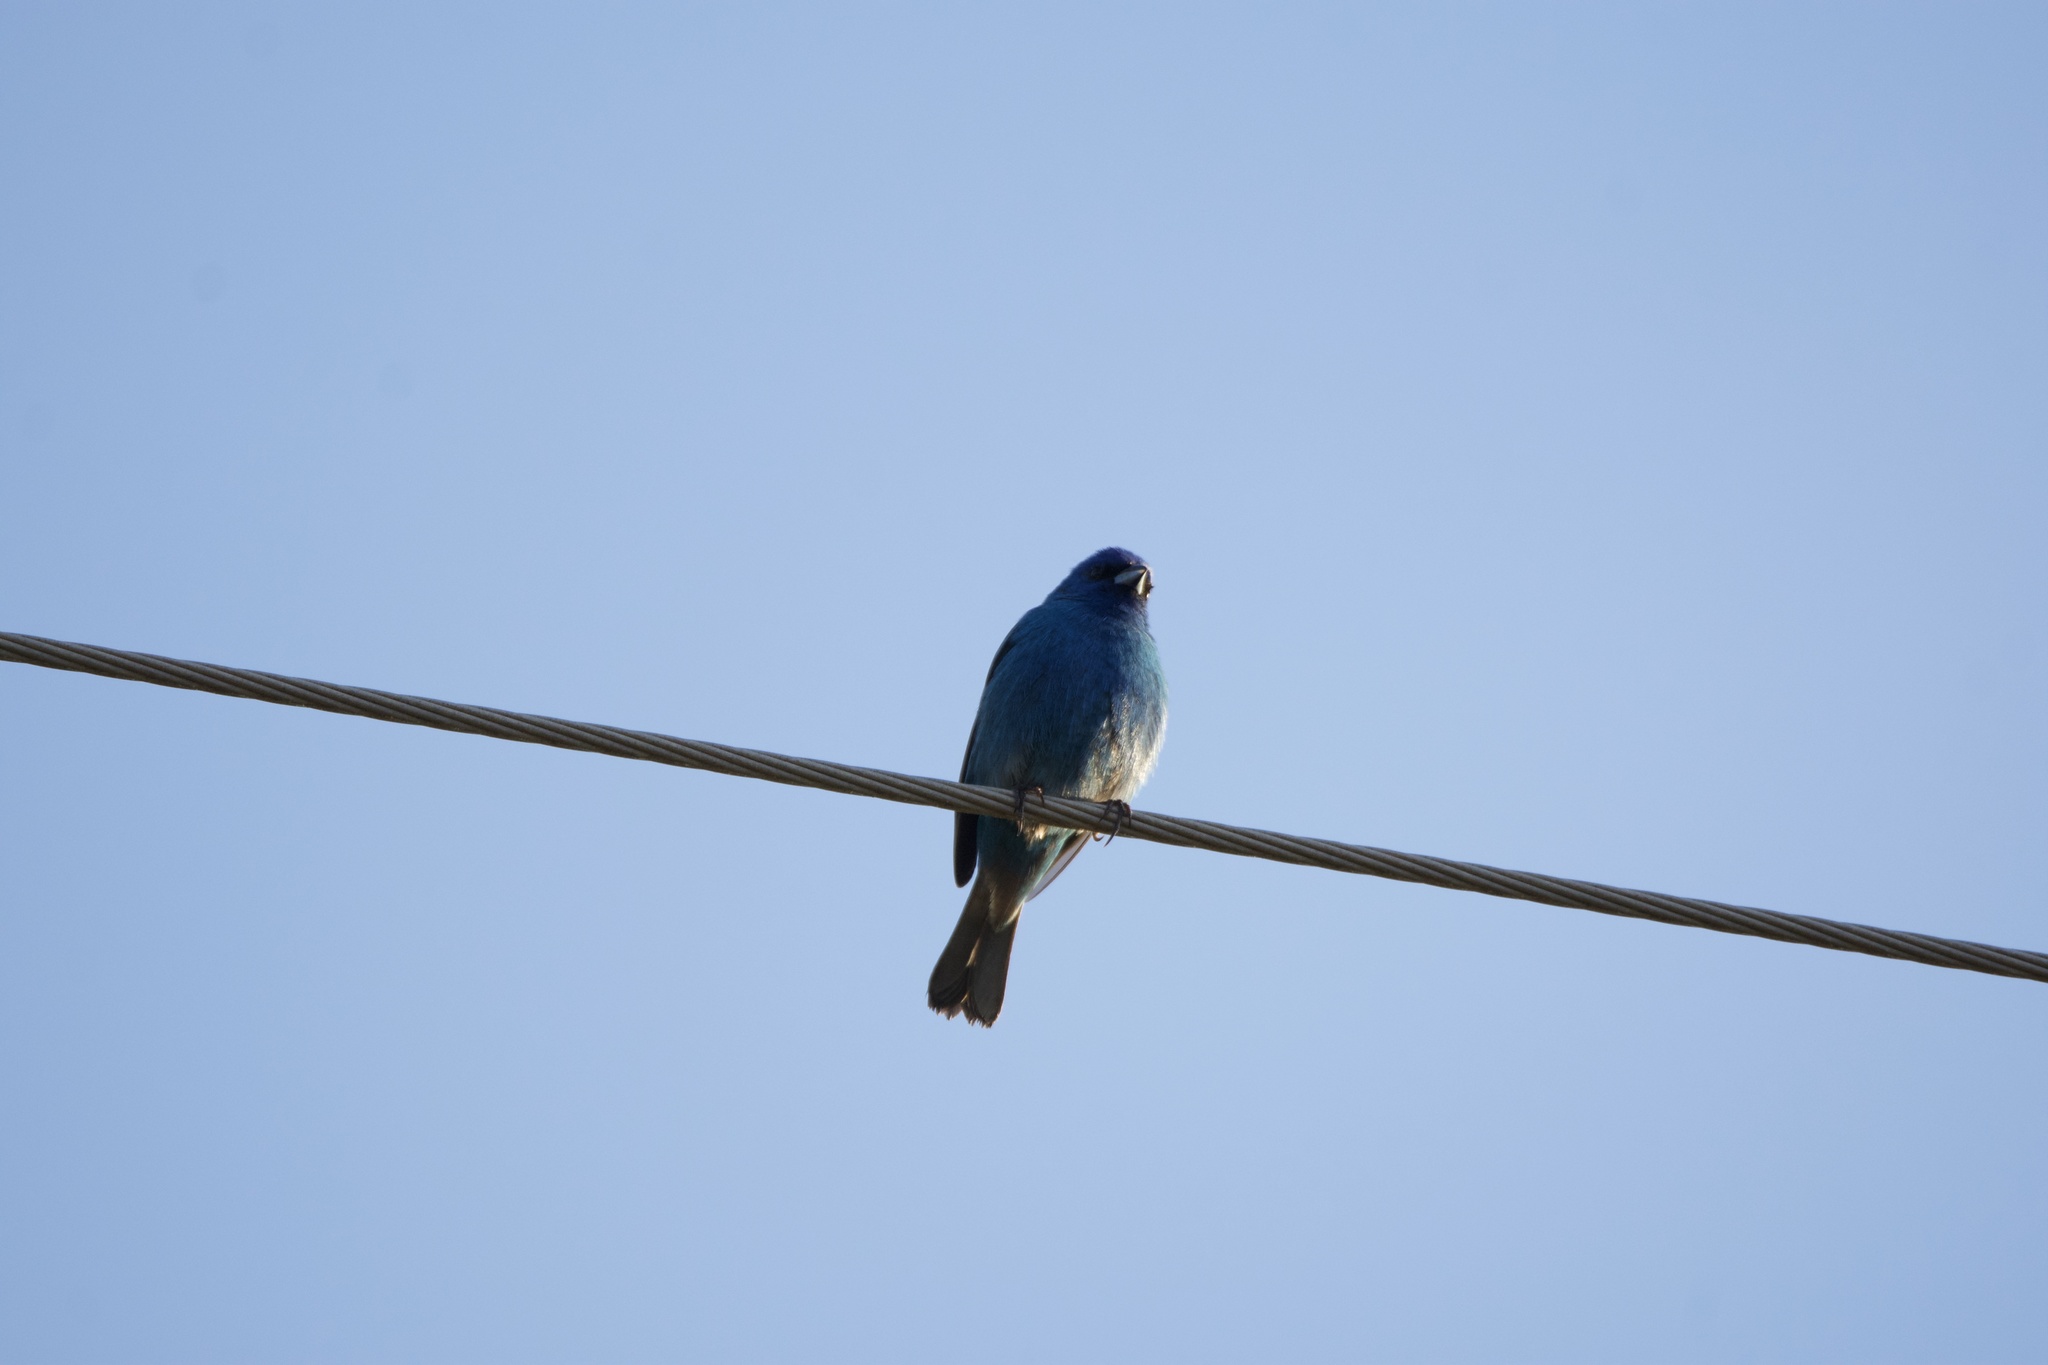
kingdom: Animalia
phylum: Chordata
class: Aves
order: Passeriformes
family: Cardinalidae
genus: Passerina
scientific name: Passerina cyanea
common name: Indigo bunting
